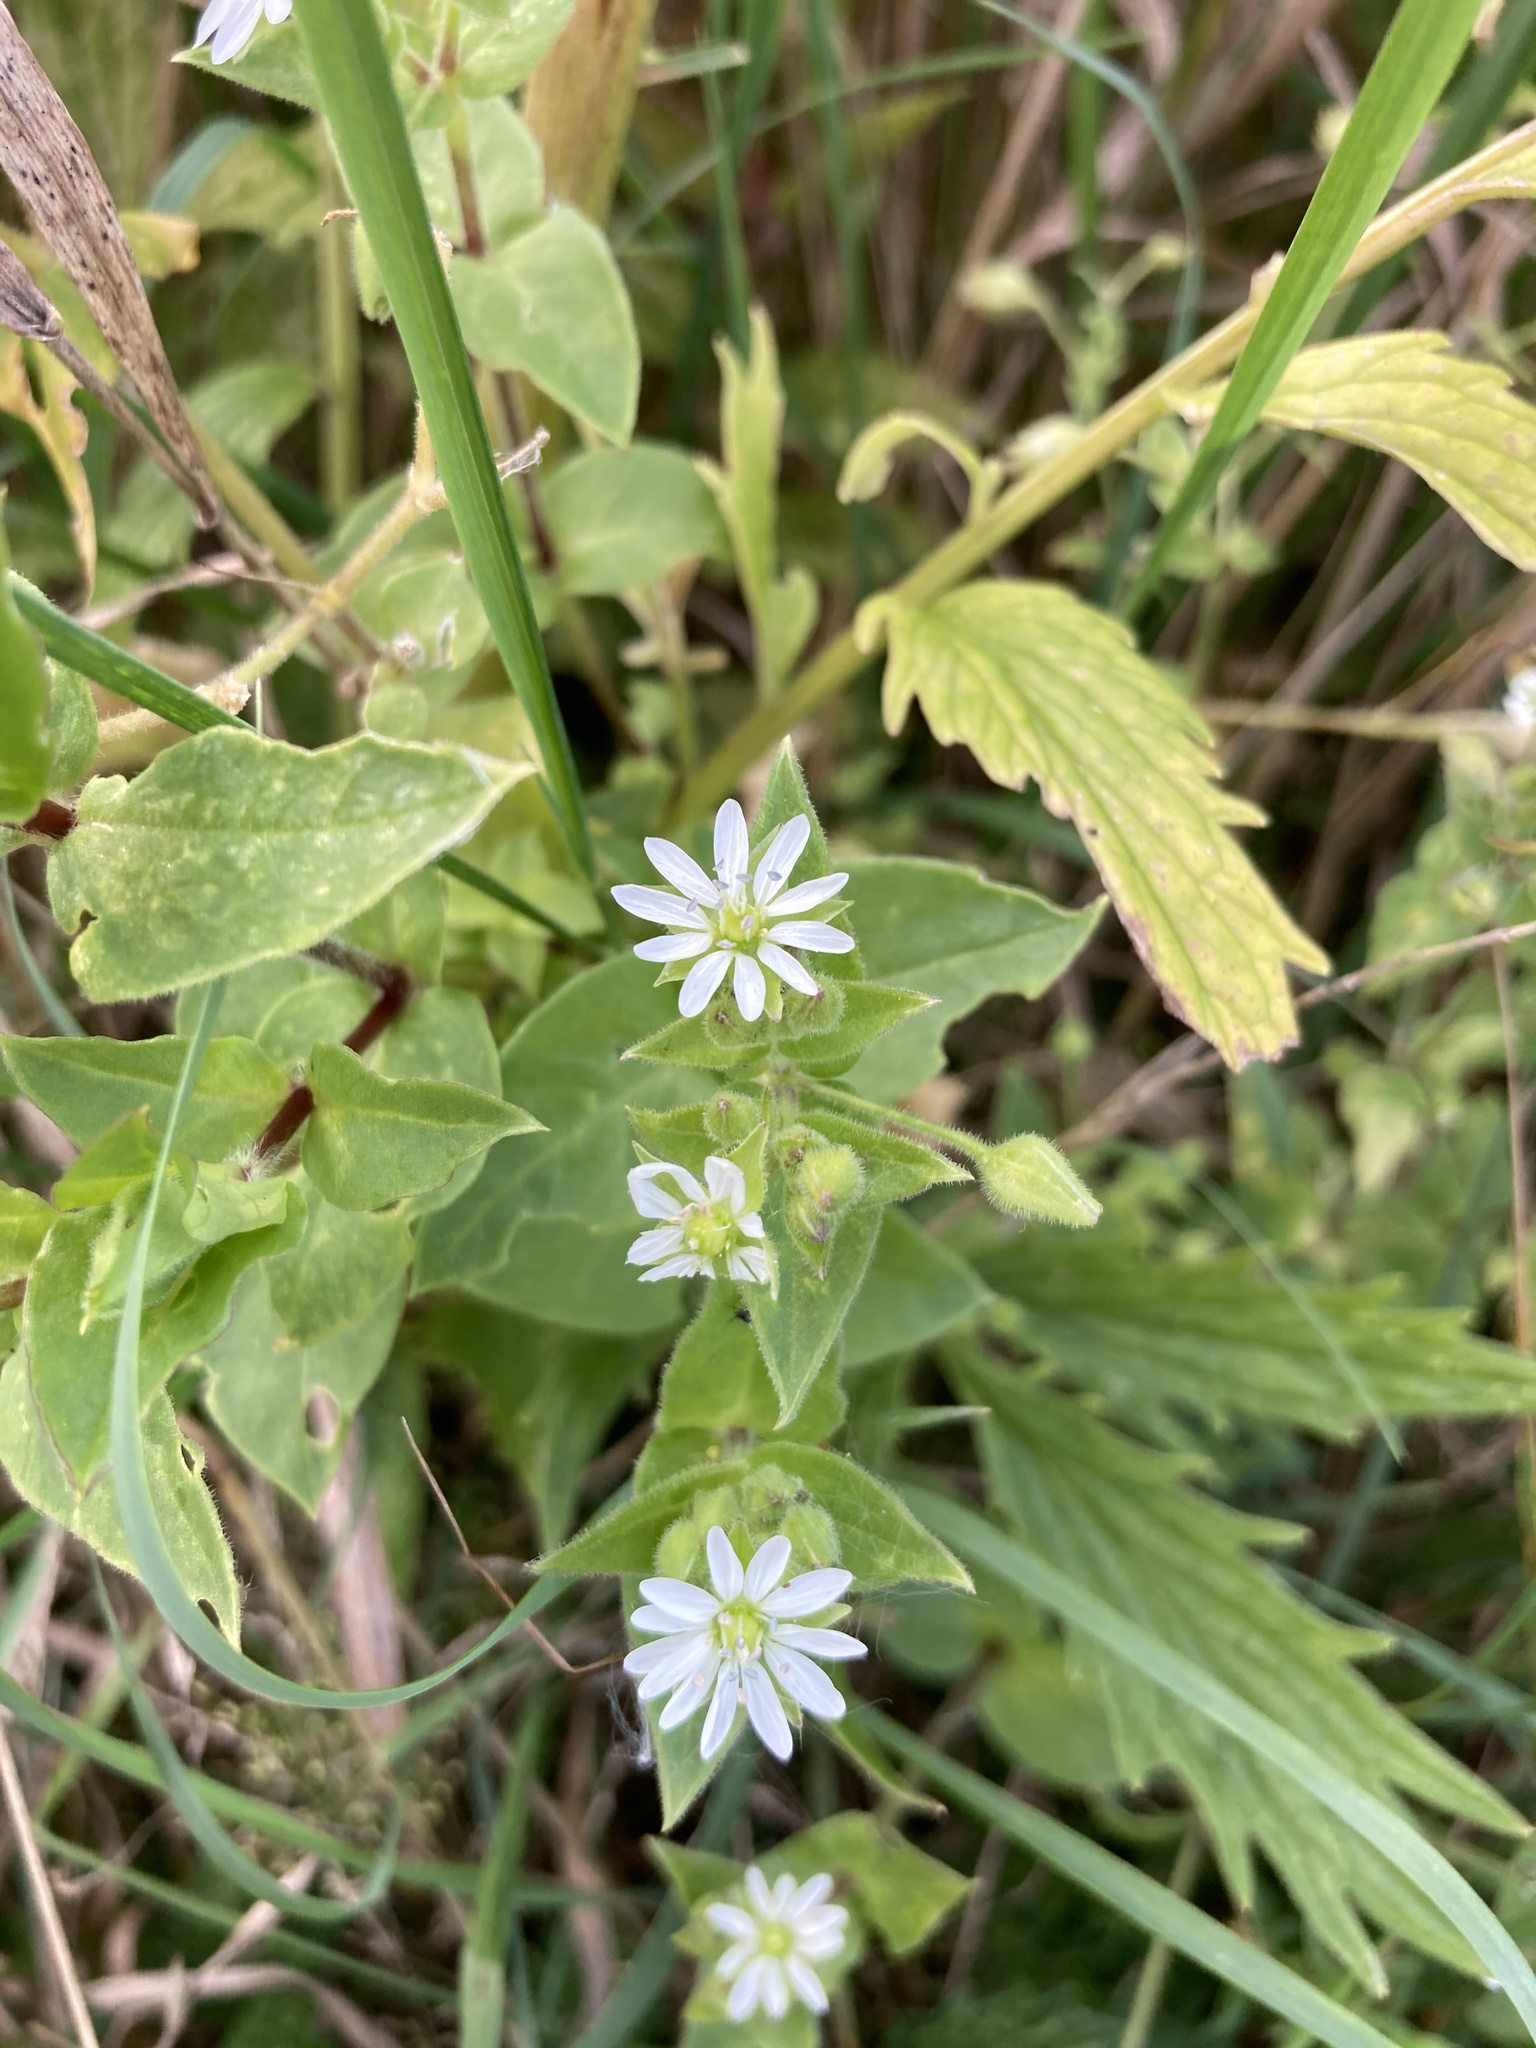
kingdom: Plantae
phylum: Tracheophyta
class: Magnoliopsida
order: Caryophyllales
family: Caryophyllaceae
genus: Stellaria
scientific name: Stellaria aquatica
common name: Water chickweed
